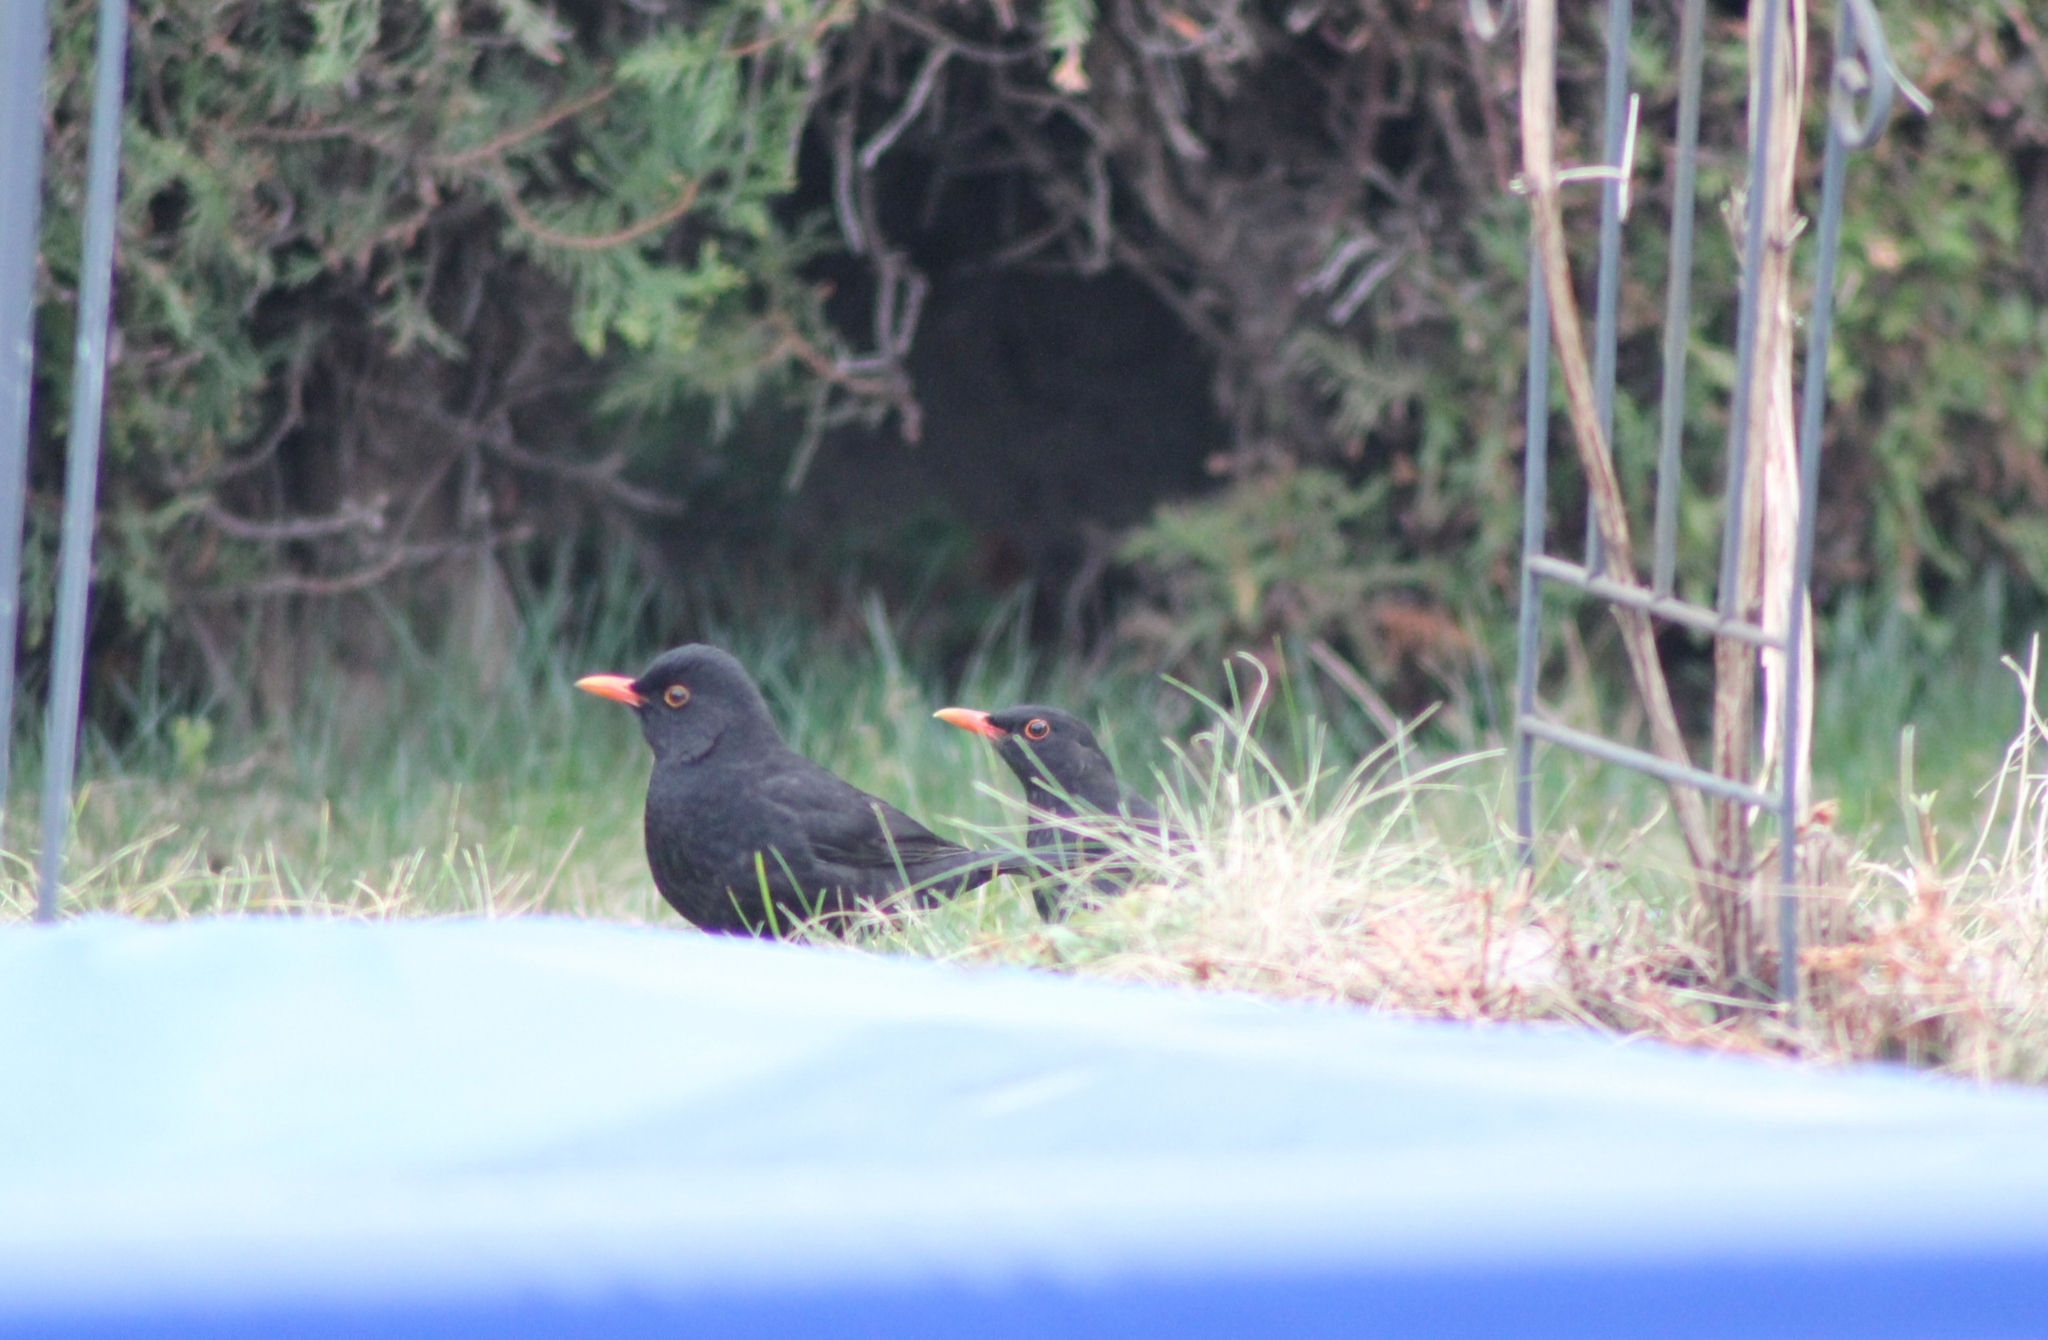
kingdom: Animalia
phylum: Chordata
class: Aves
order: Passeriformes
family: Turdidae
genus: Turdus
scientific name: Turdus merula
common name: Common blackbird
